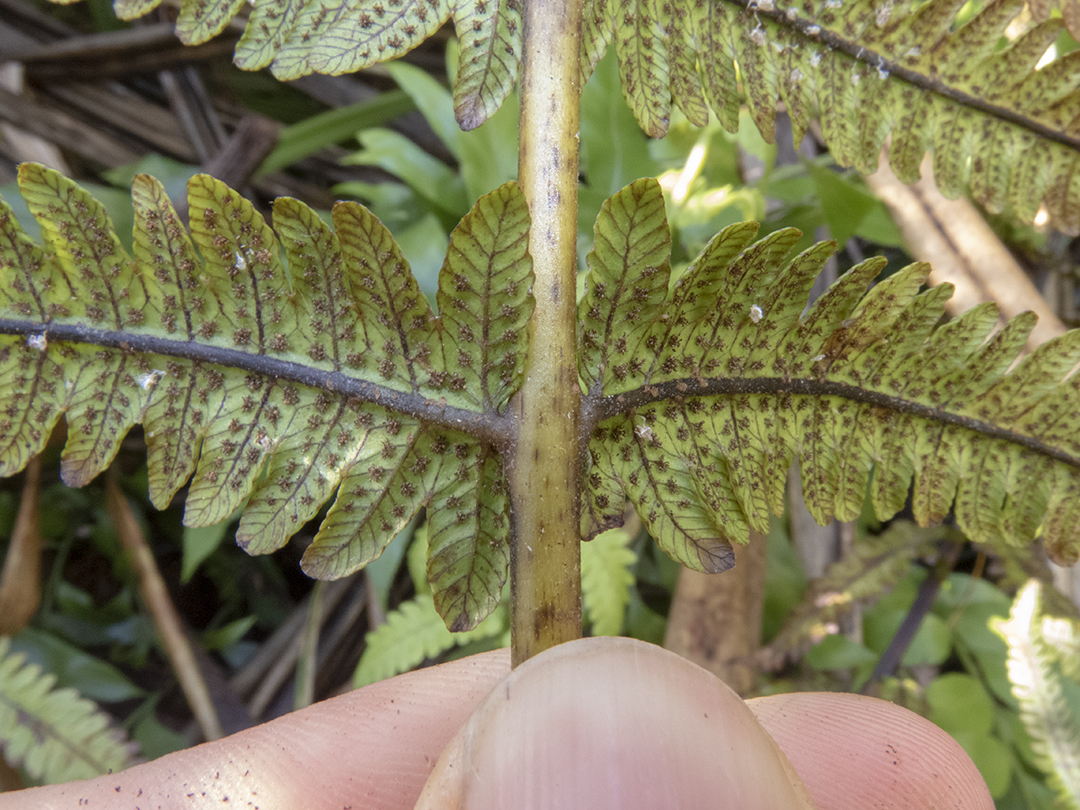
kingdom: Plantae
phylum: Tracheophyta
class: Polypodiopsida
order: Polypodiales
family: Thelypteridaceae
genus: Pakau
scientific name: Pakau pennigera
